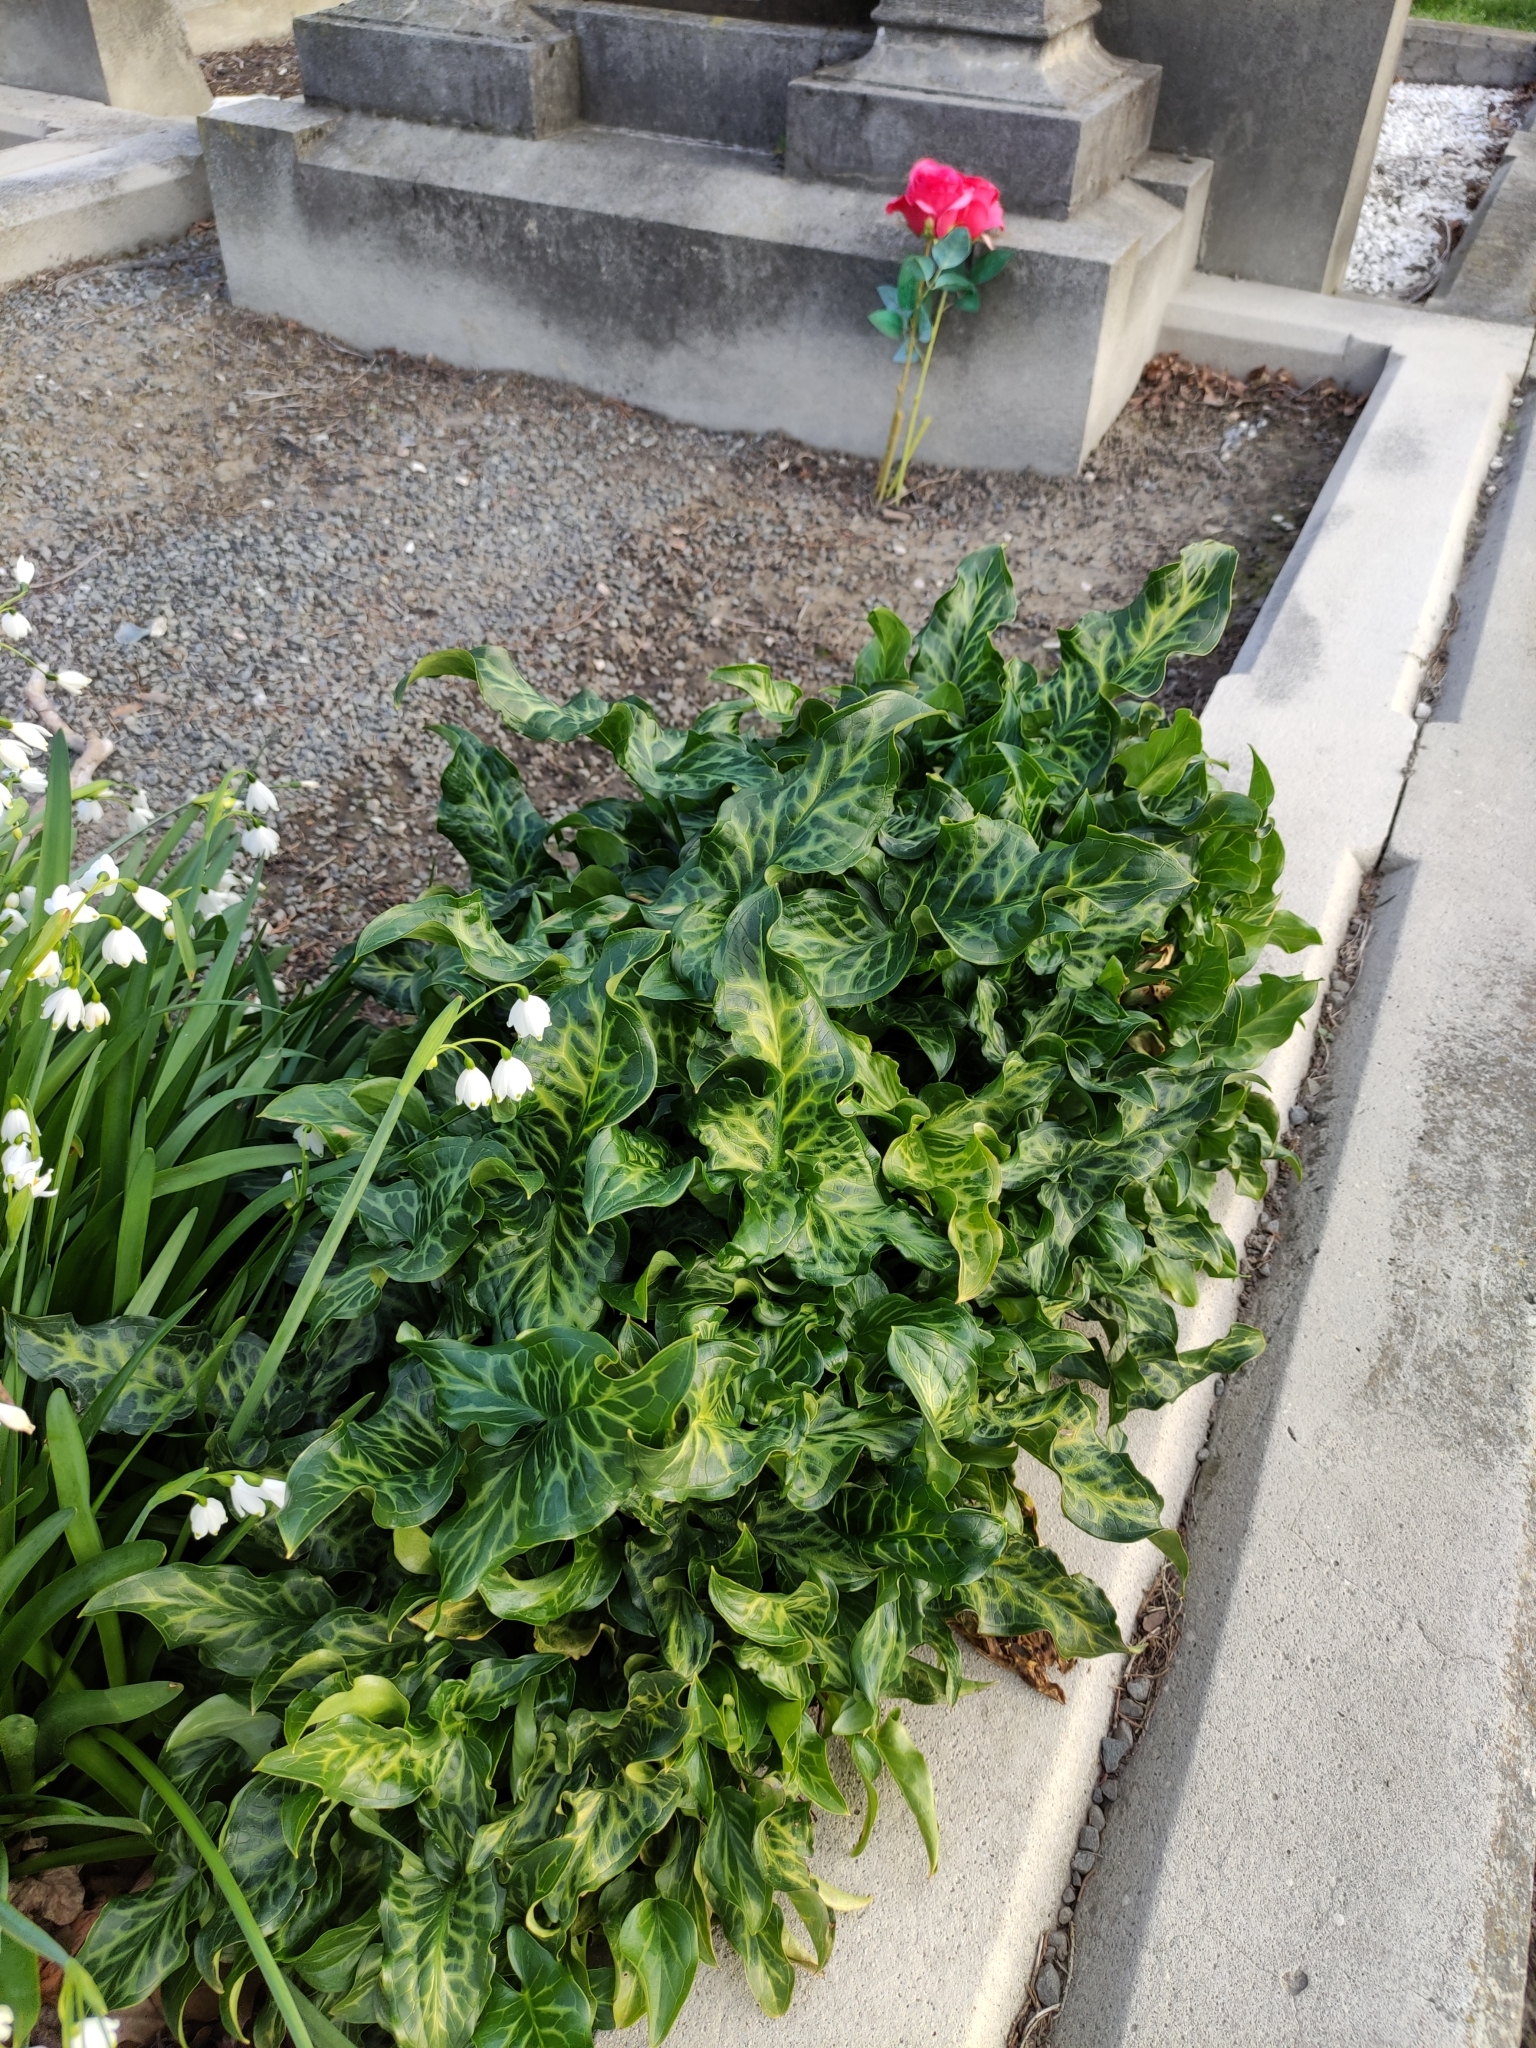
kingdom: Plantae
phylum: Tracheophyta
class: Liliopsida
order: Alismatales
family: Araceae
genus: Arum
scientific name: Arum italicum
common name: Italian lords-and-ladies
